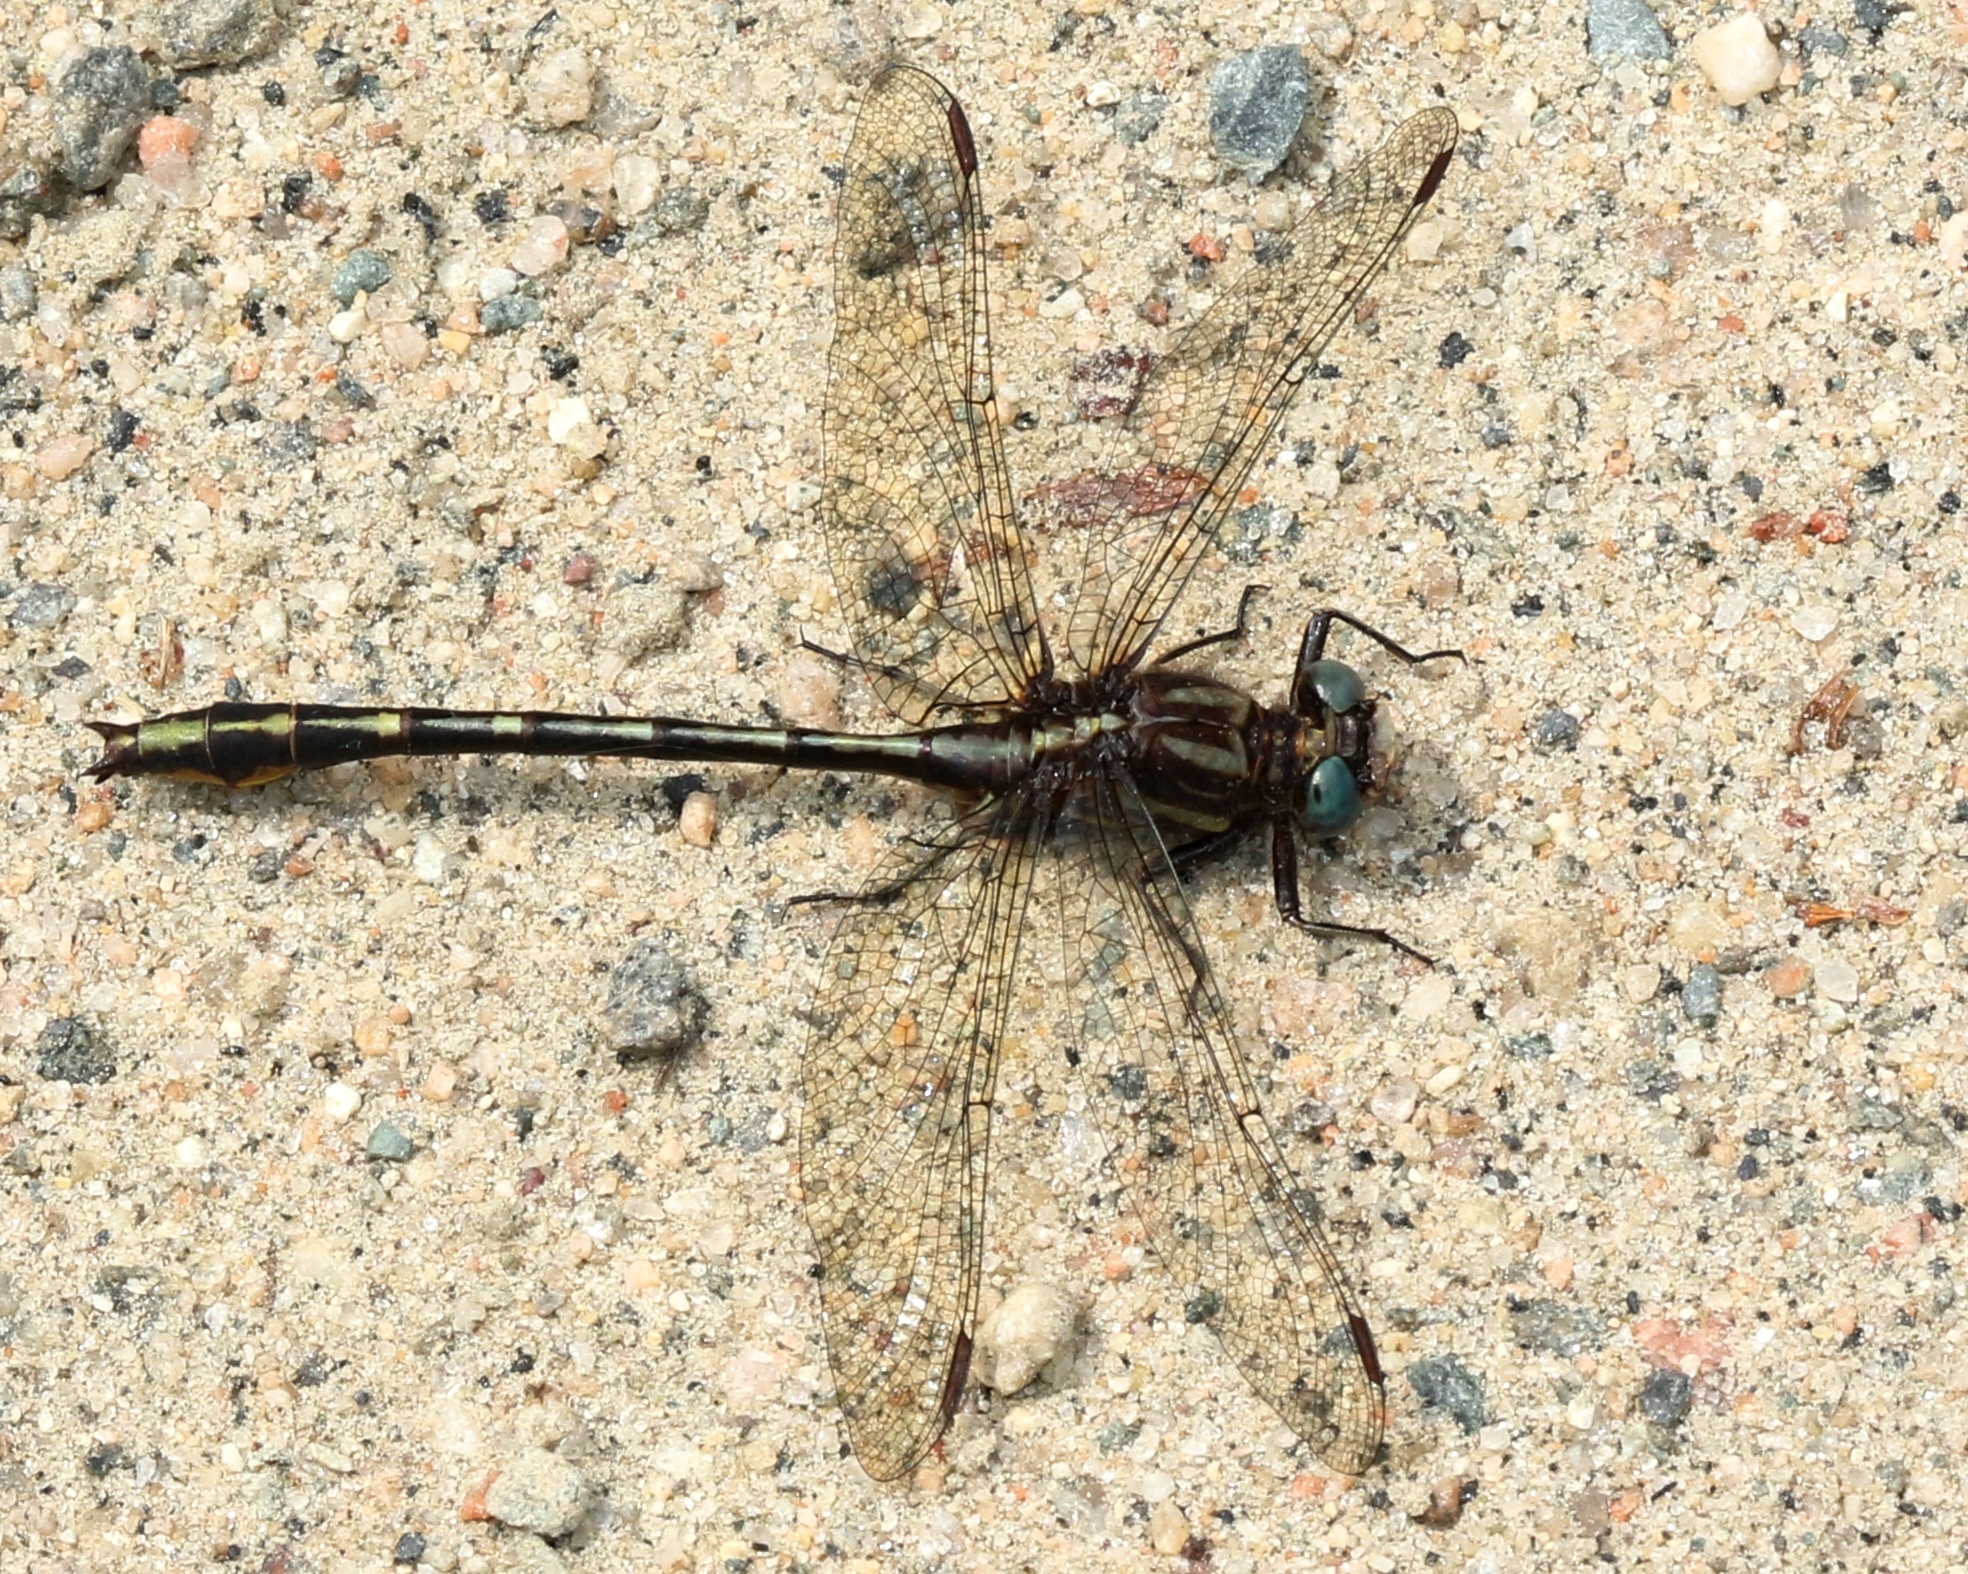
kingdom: Animalia
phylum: Arthropoda
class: Insecta
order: Odonata
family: Gomphidae
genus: Phanogomphus
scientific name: Phanogomphus exilis
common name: Lancet clubtail
